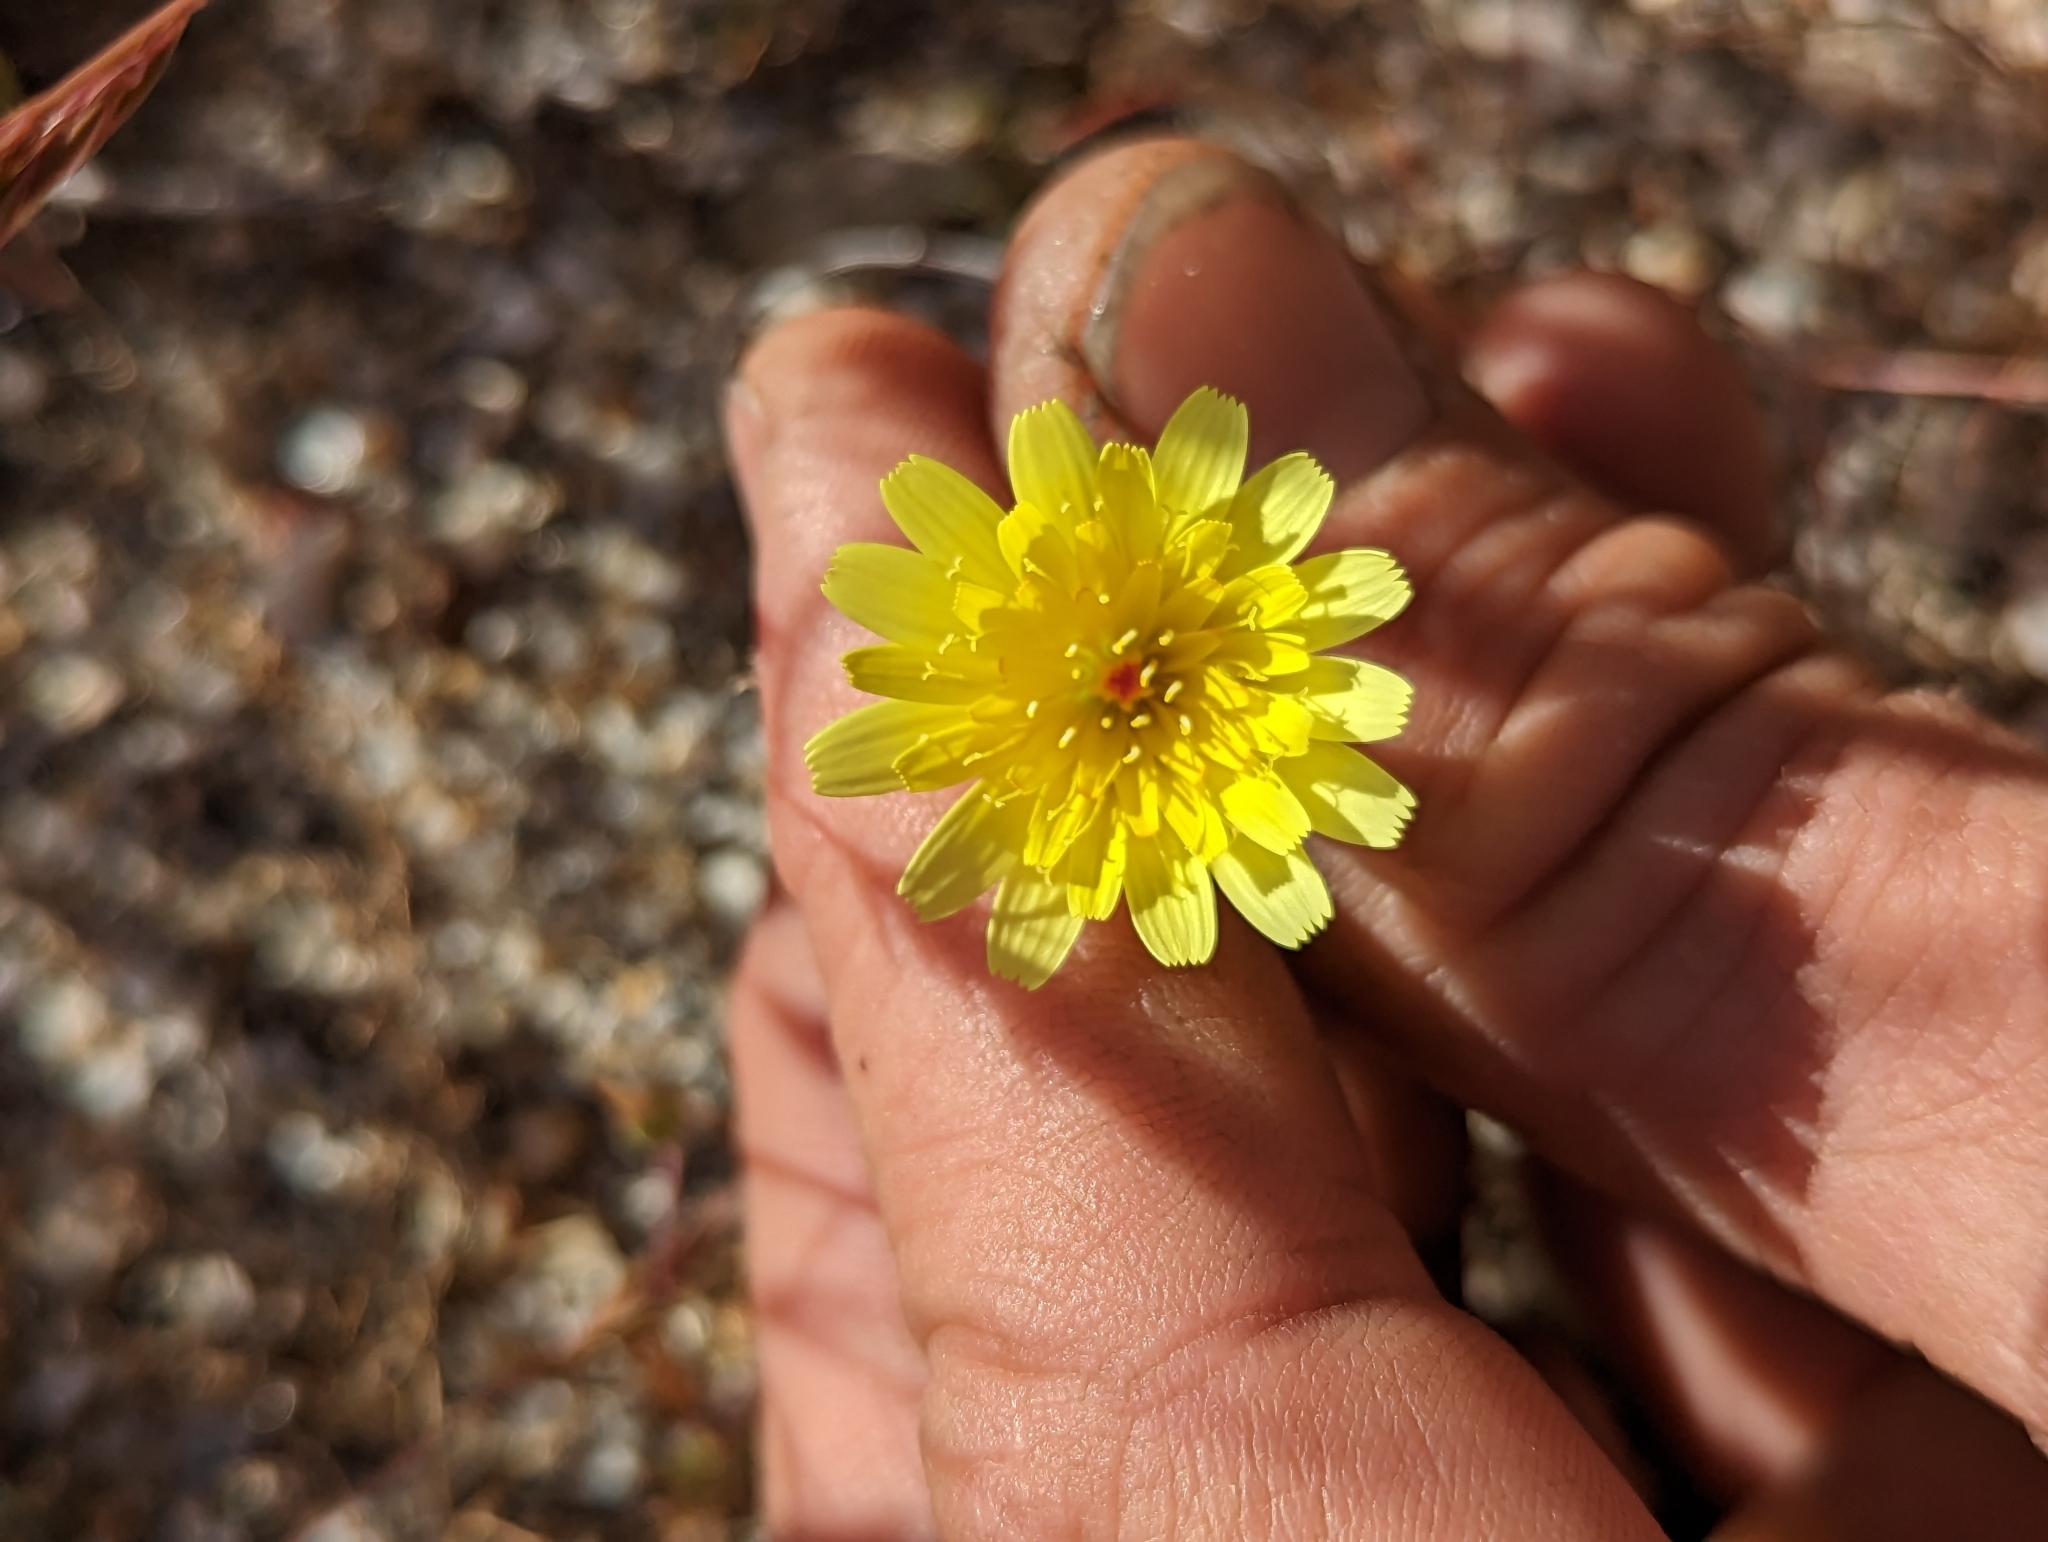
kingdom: Plantae
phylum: Tracheophyta
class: Magnoliopsida
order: Asterales
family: Asteraceae
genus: Malacothrix
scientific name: Malacothrix glabrata
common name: Smooth desert-dandelion
